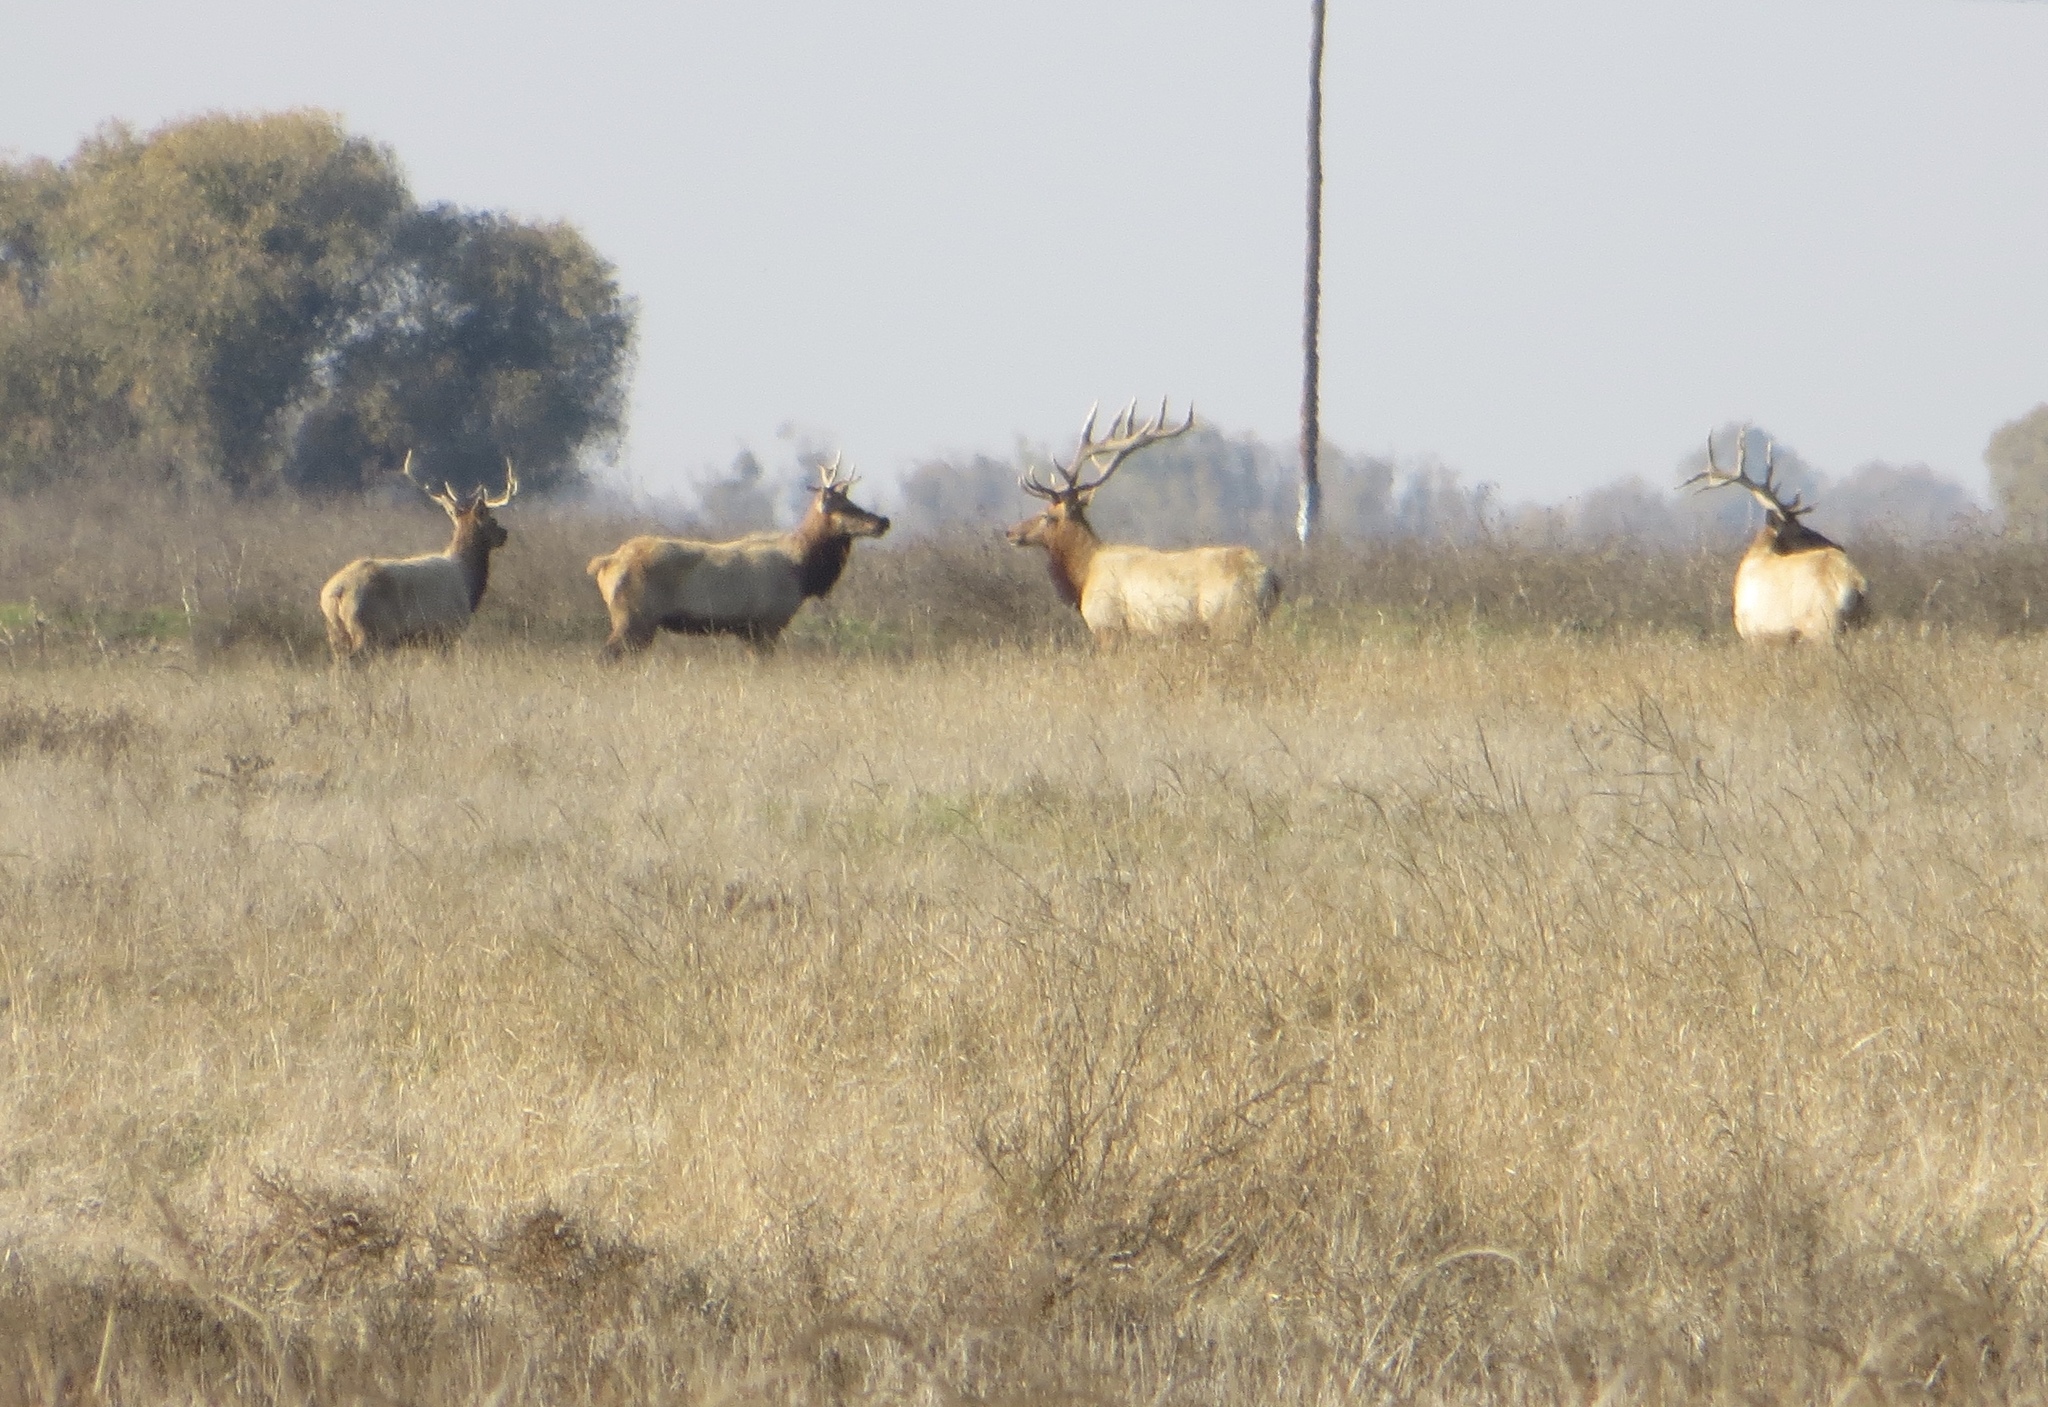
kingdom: Animalia
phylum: Chordata
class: Mammalia
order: Artiodactyla
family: Cervidae
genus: Cervus
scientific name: Cervus elaphus
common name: Red deer
